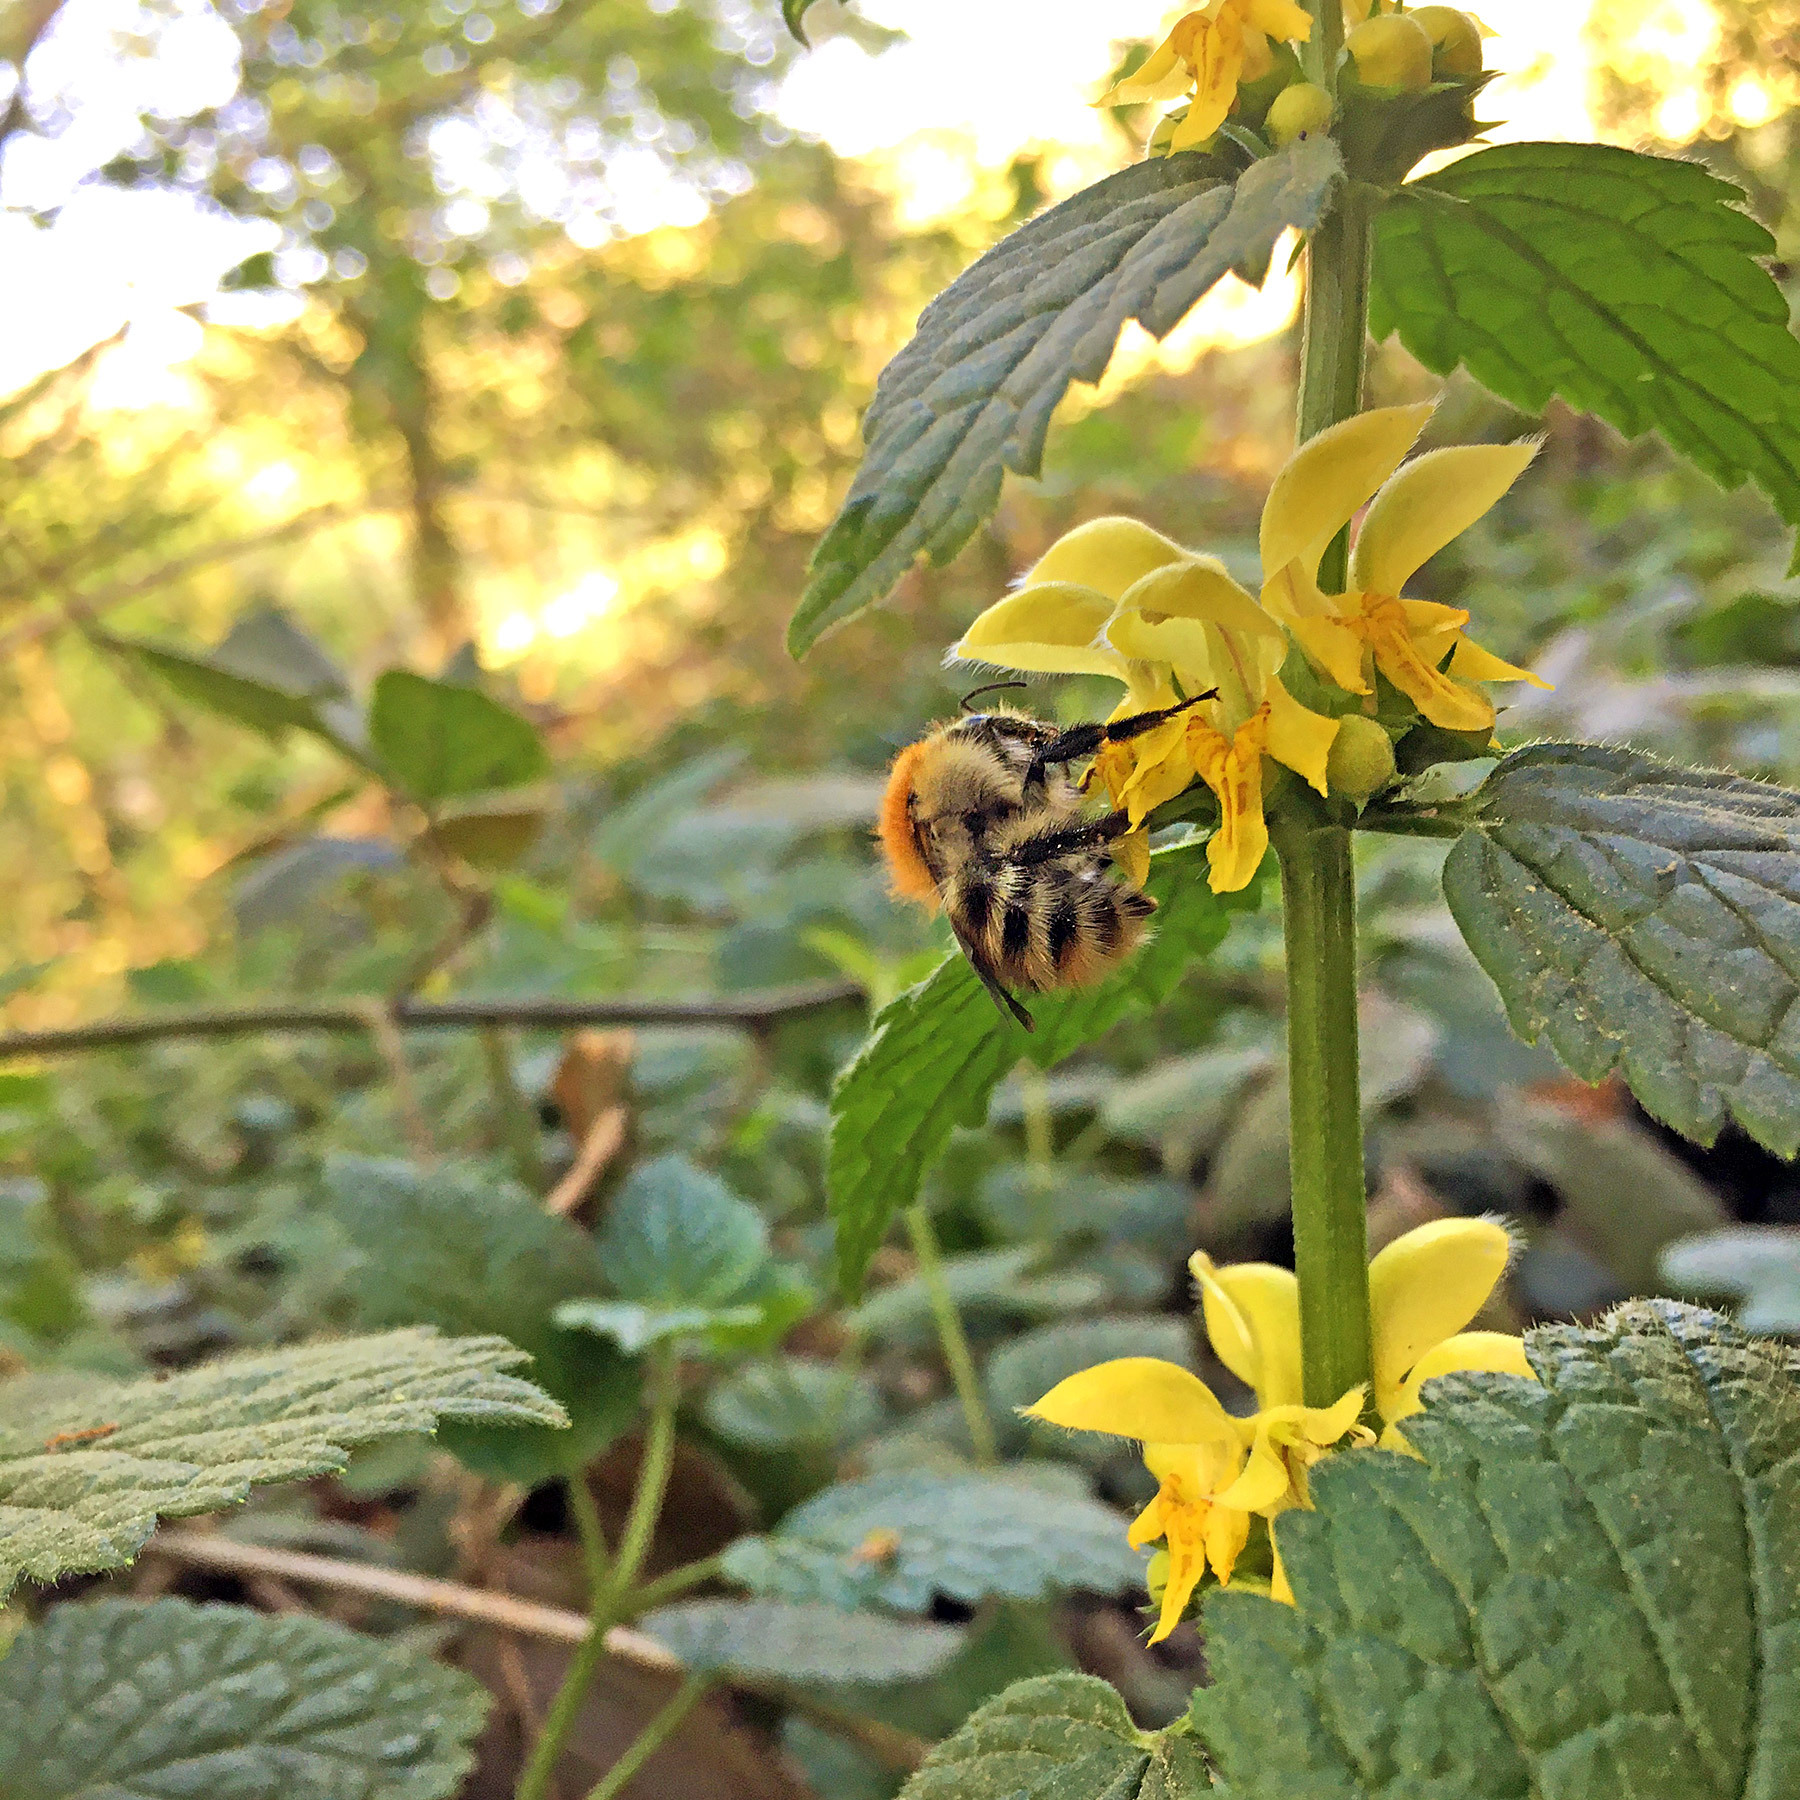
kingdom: Animalia
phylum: Arthropoda
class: Insecta
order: Hymenoptera
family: Apidae
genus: Bombus
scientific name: Bombus pascuorum
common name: Common carder bee
